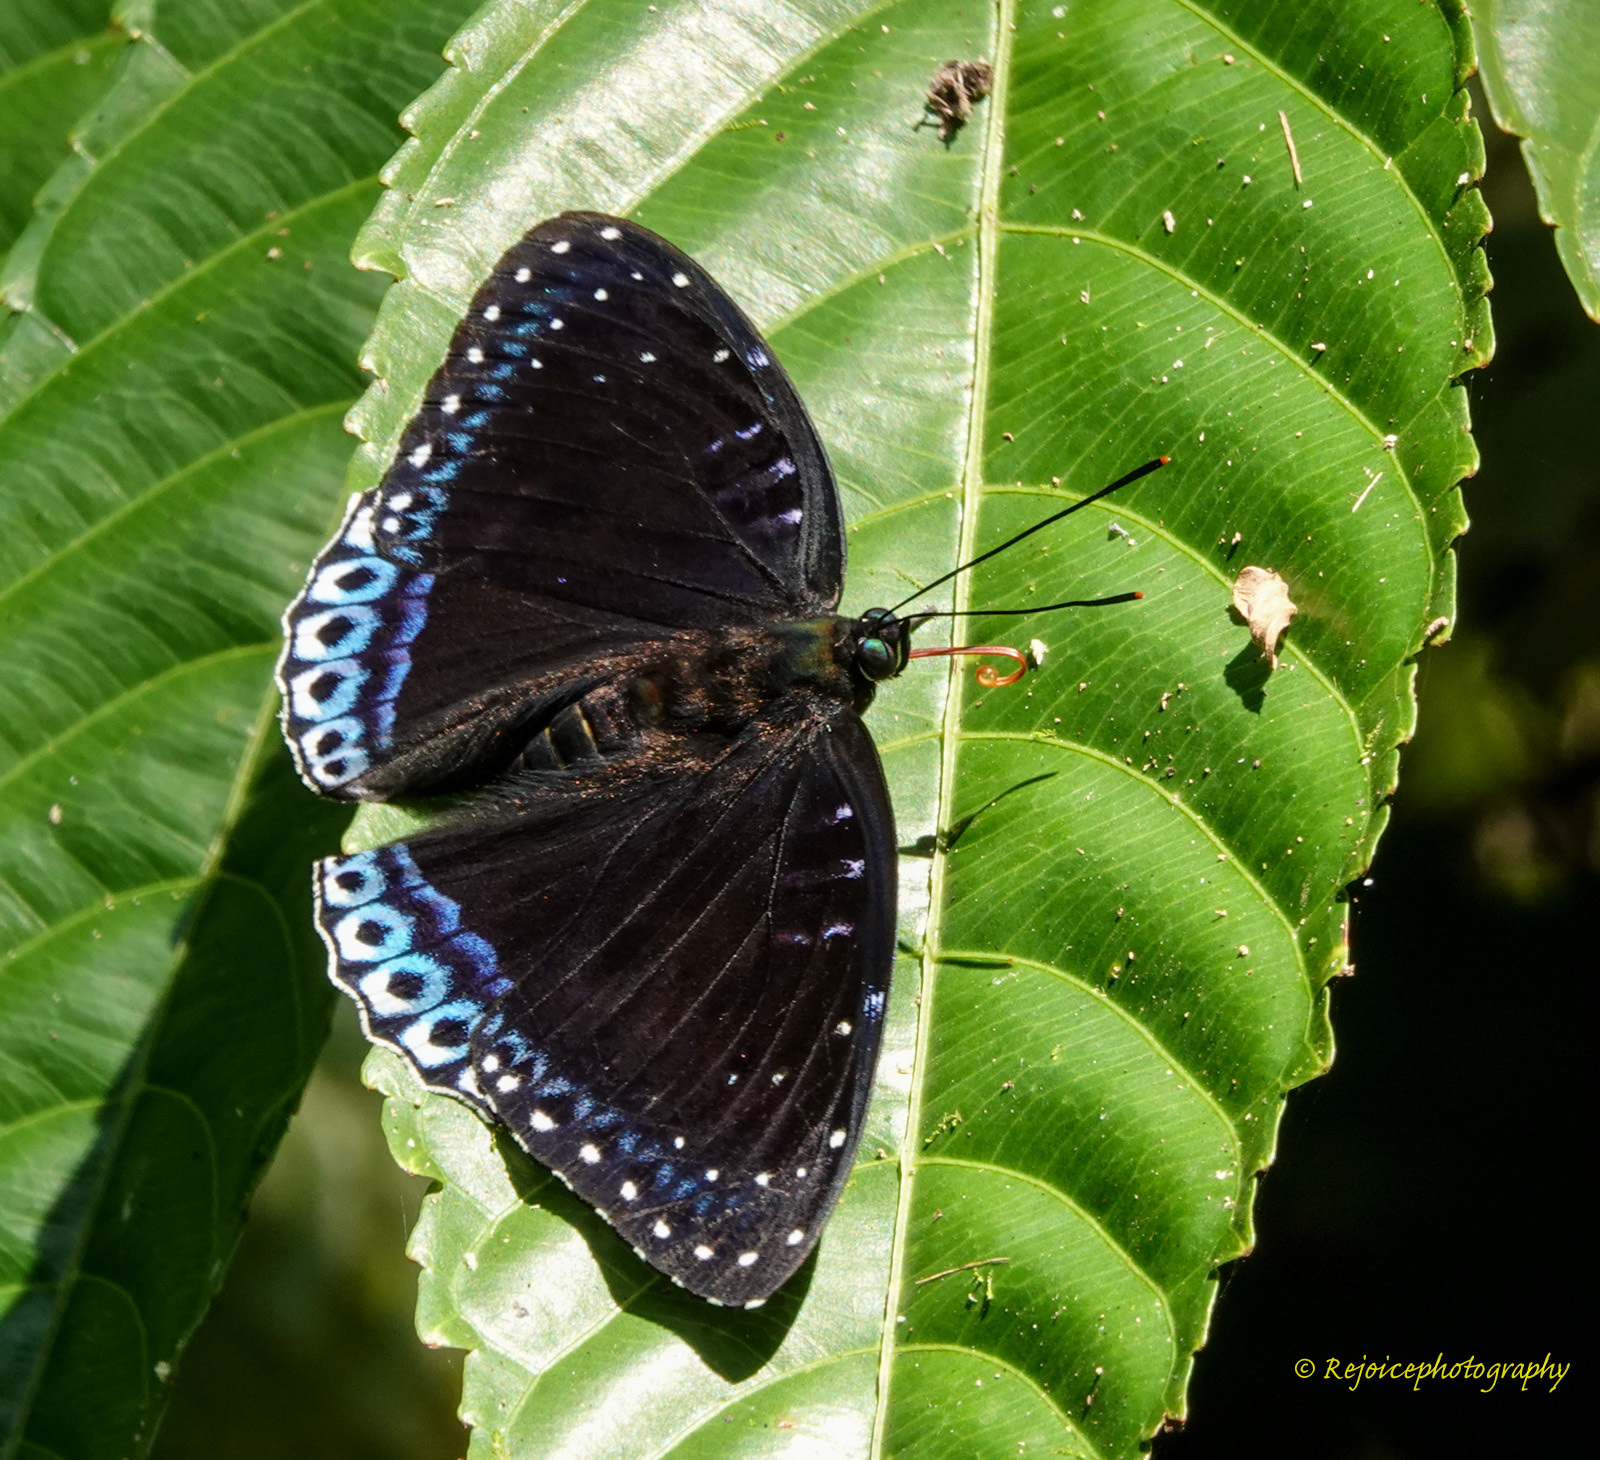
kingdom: Animalia
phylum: Arthropoda
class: Insecta
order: Lepidoptera
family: Nymphalidae
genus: Stibochiona
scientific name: Stibochiona nicea
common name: Popinjay
